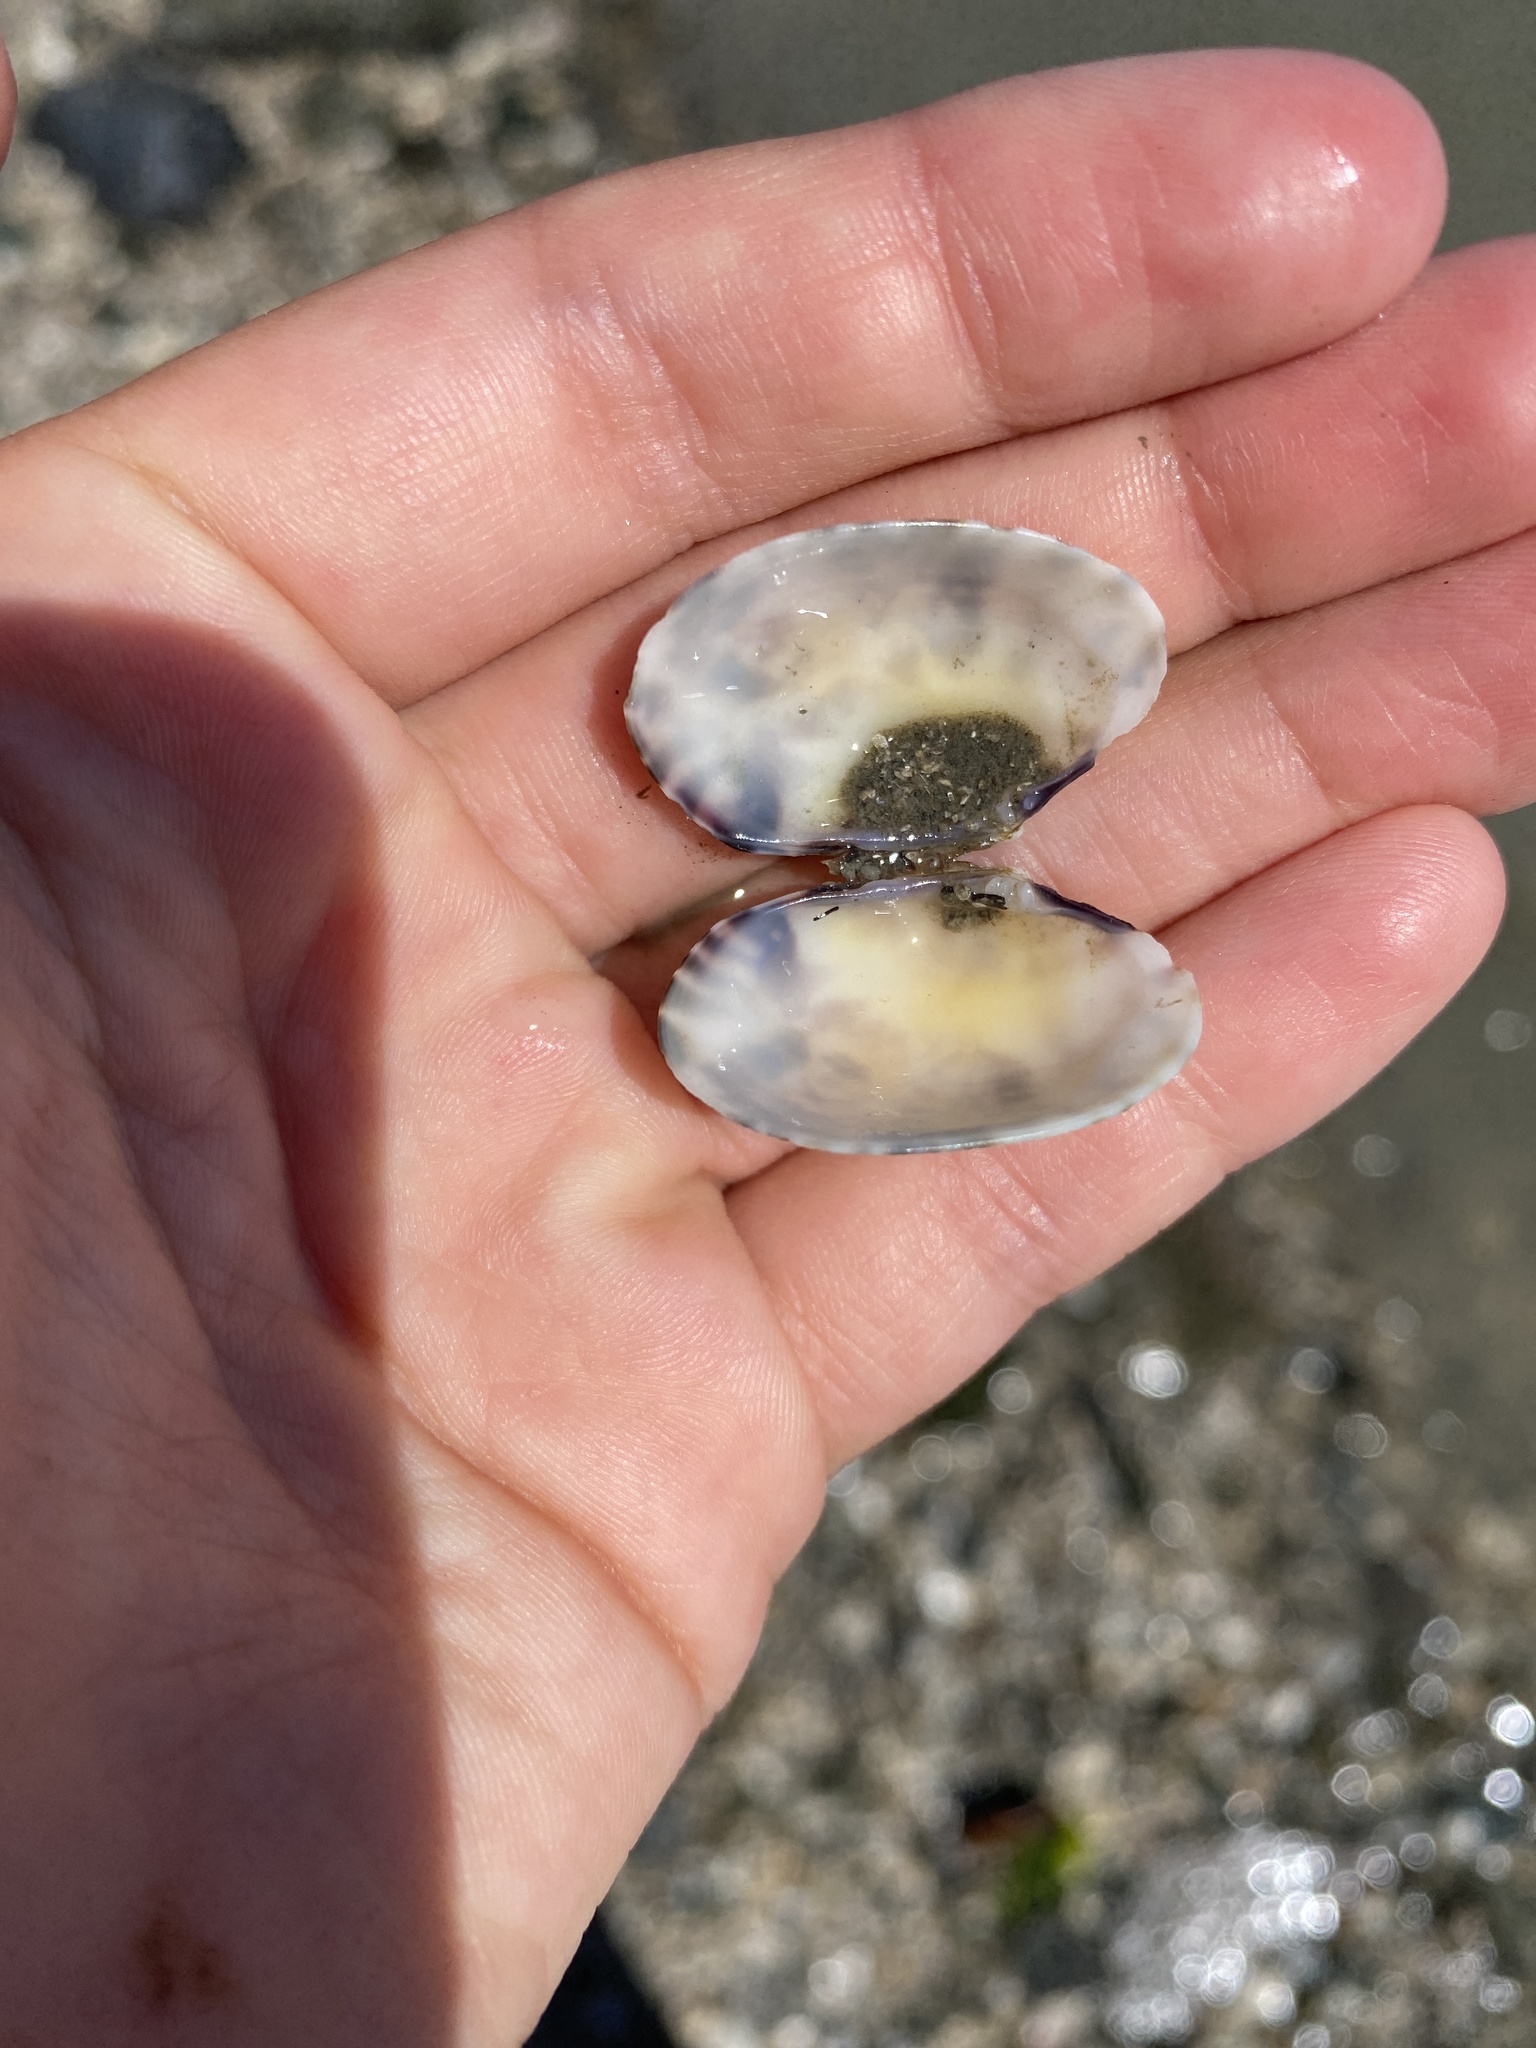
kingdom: Animalia
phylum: Mollusca
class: Bivalvia
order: Venerida
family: Veneridae
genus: Ruditapes
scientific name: Ruditapes philippinarum
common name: Manila clam
